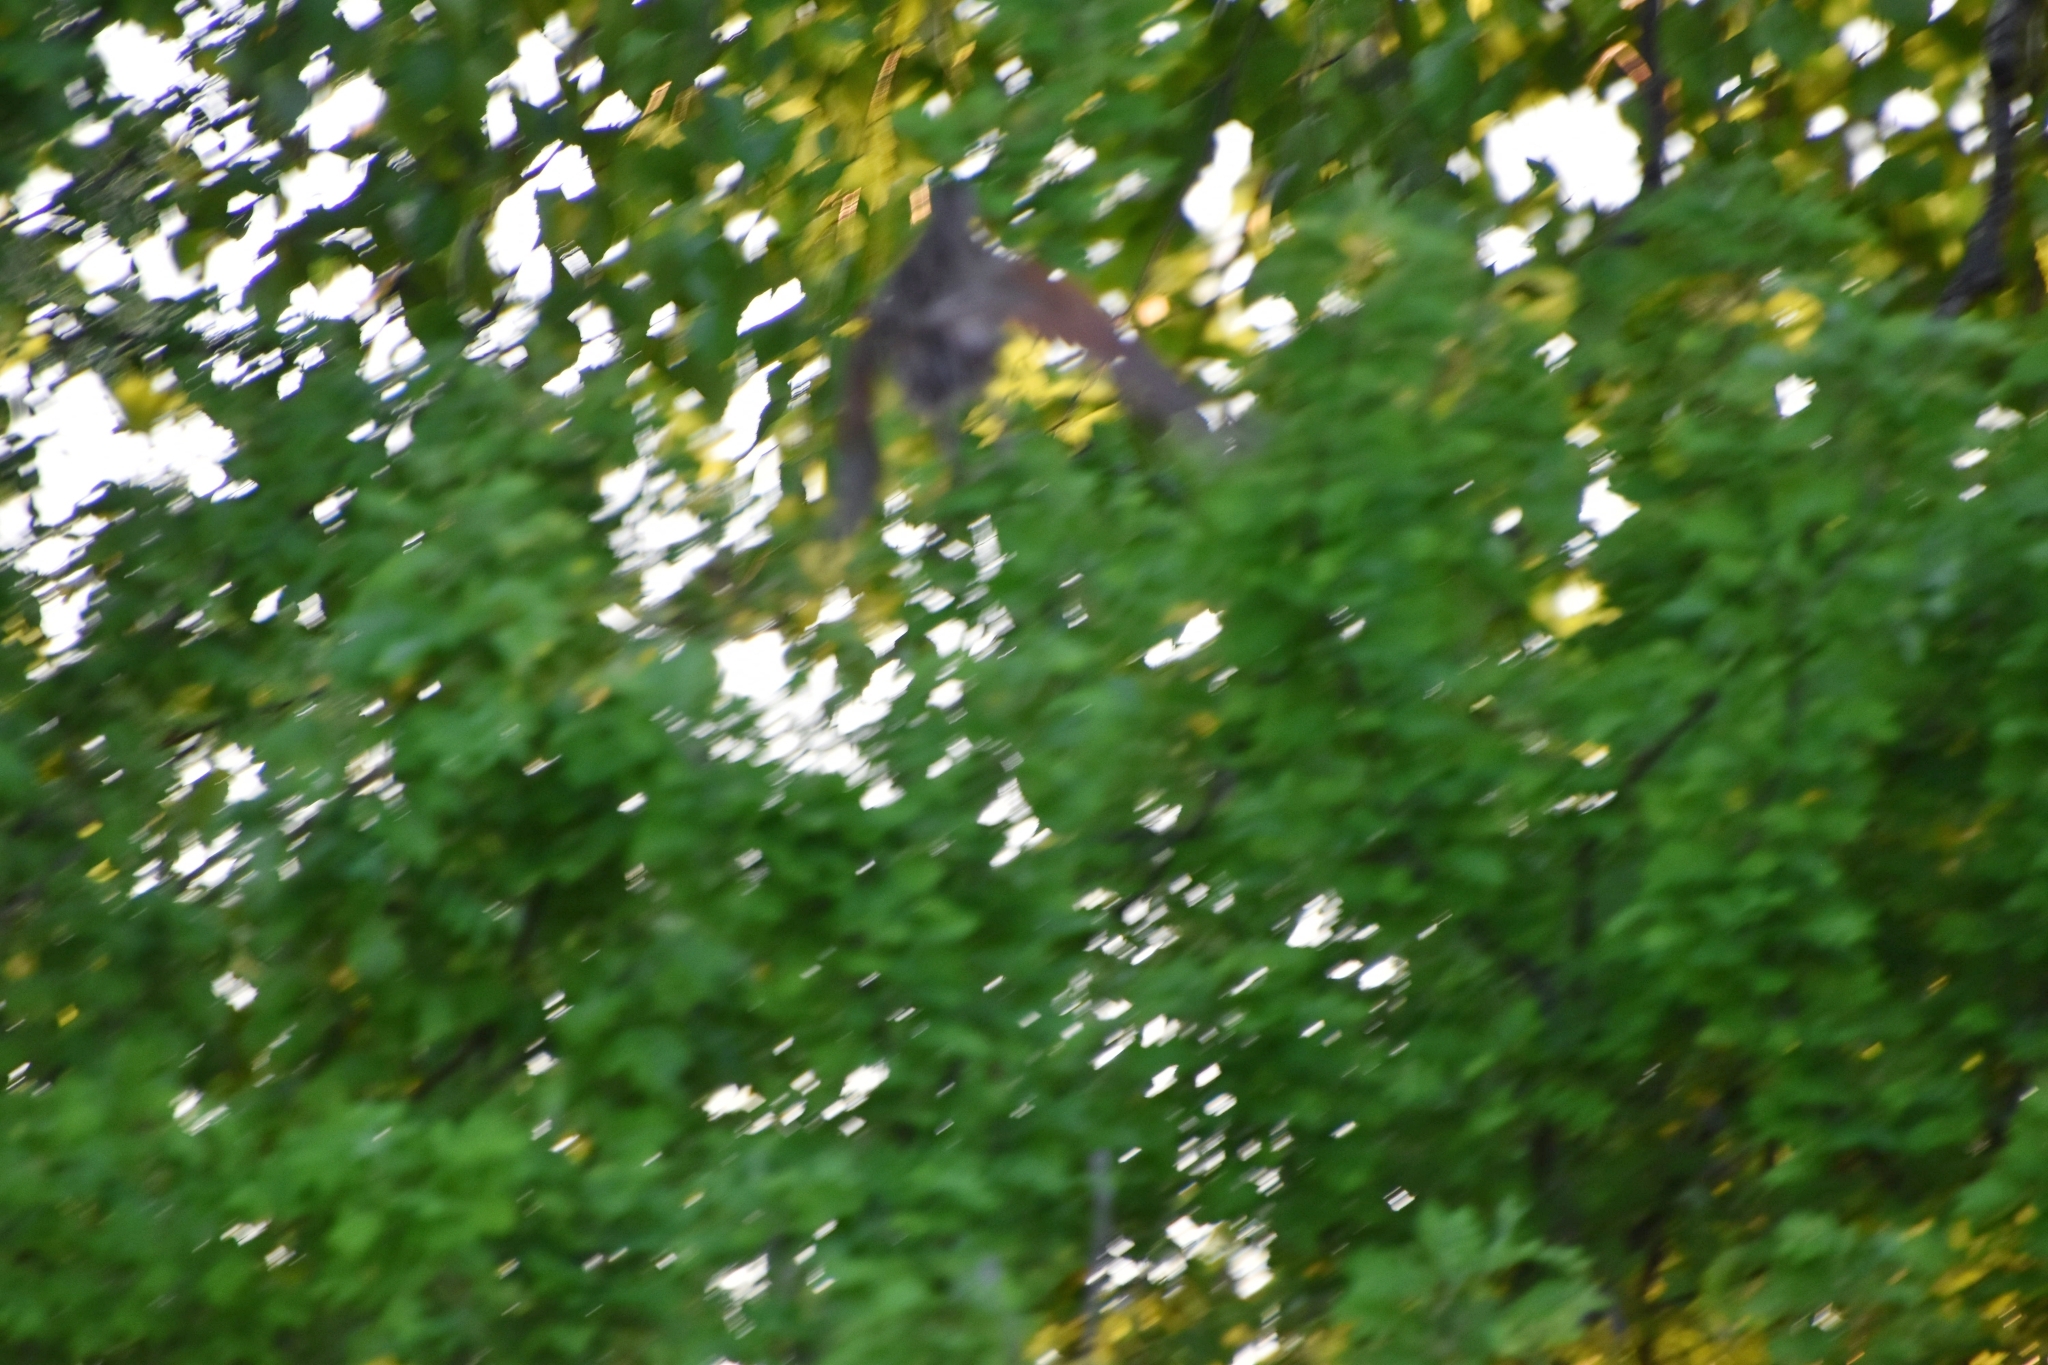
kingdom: Animalia
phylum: Chordata
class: Aves
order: Gruiformes
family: Rallidae
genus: Crex
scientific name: Crex crex
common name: Corn crake
